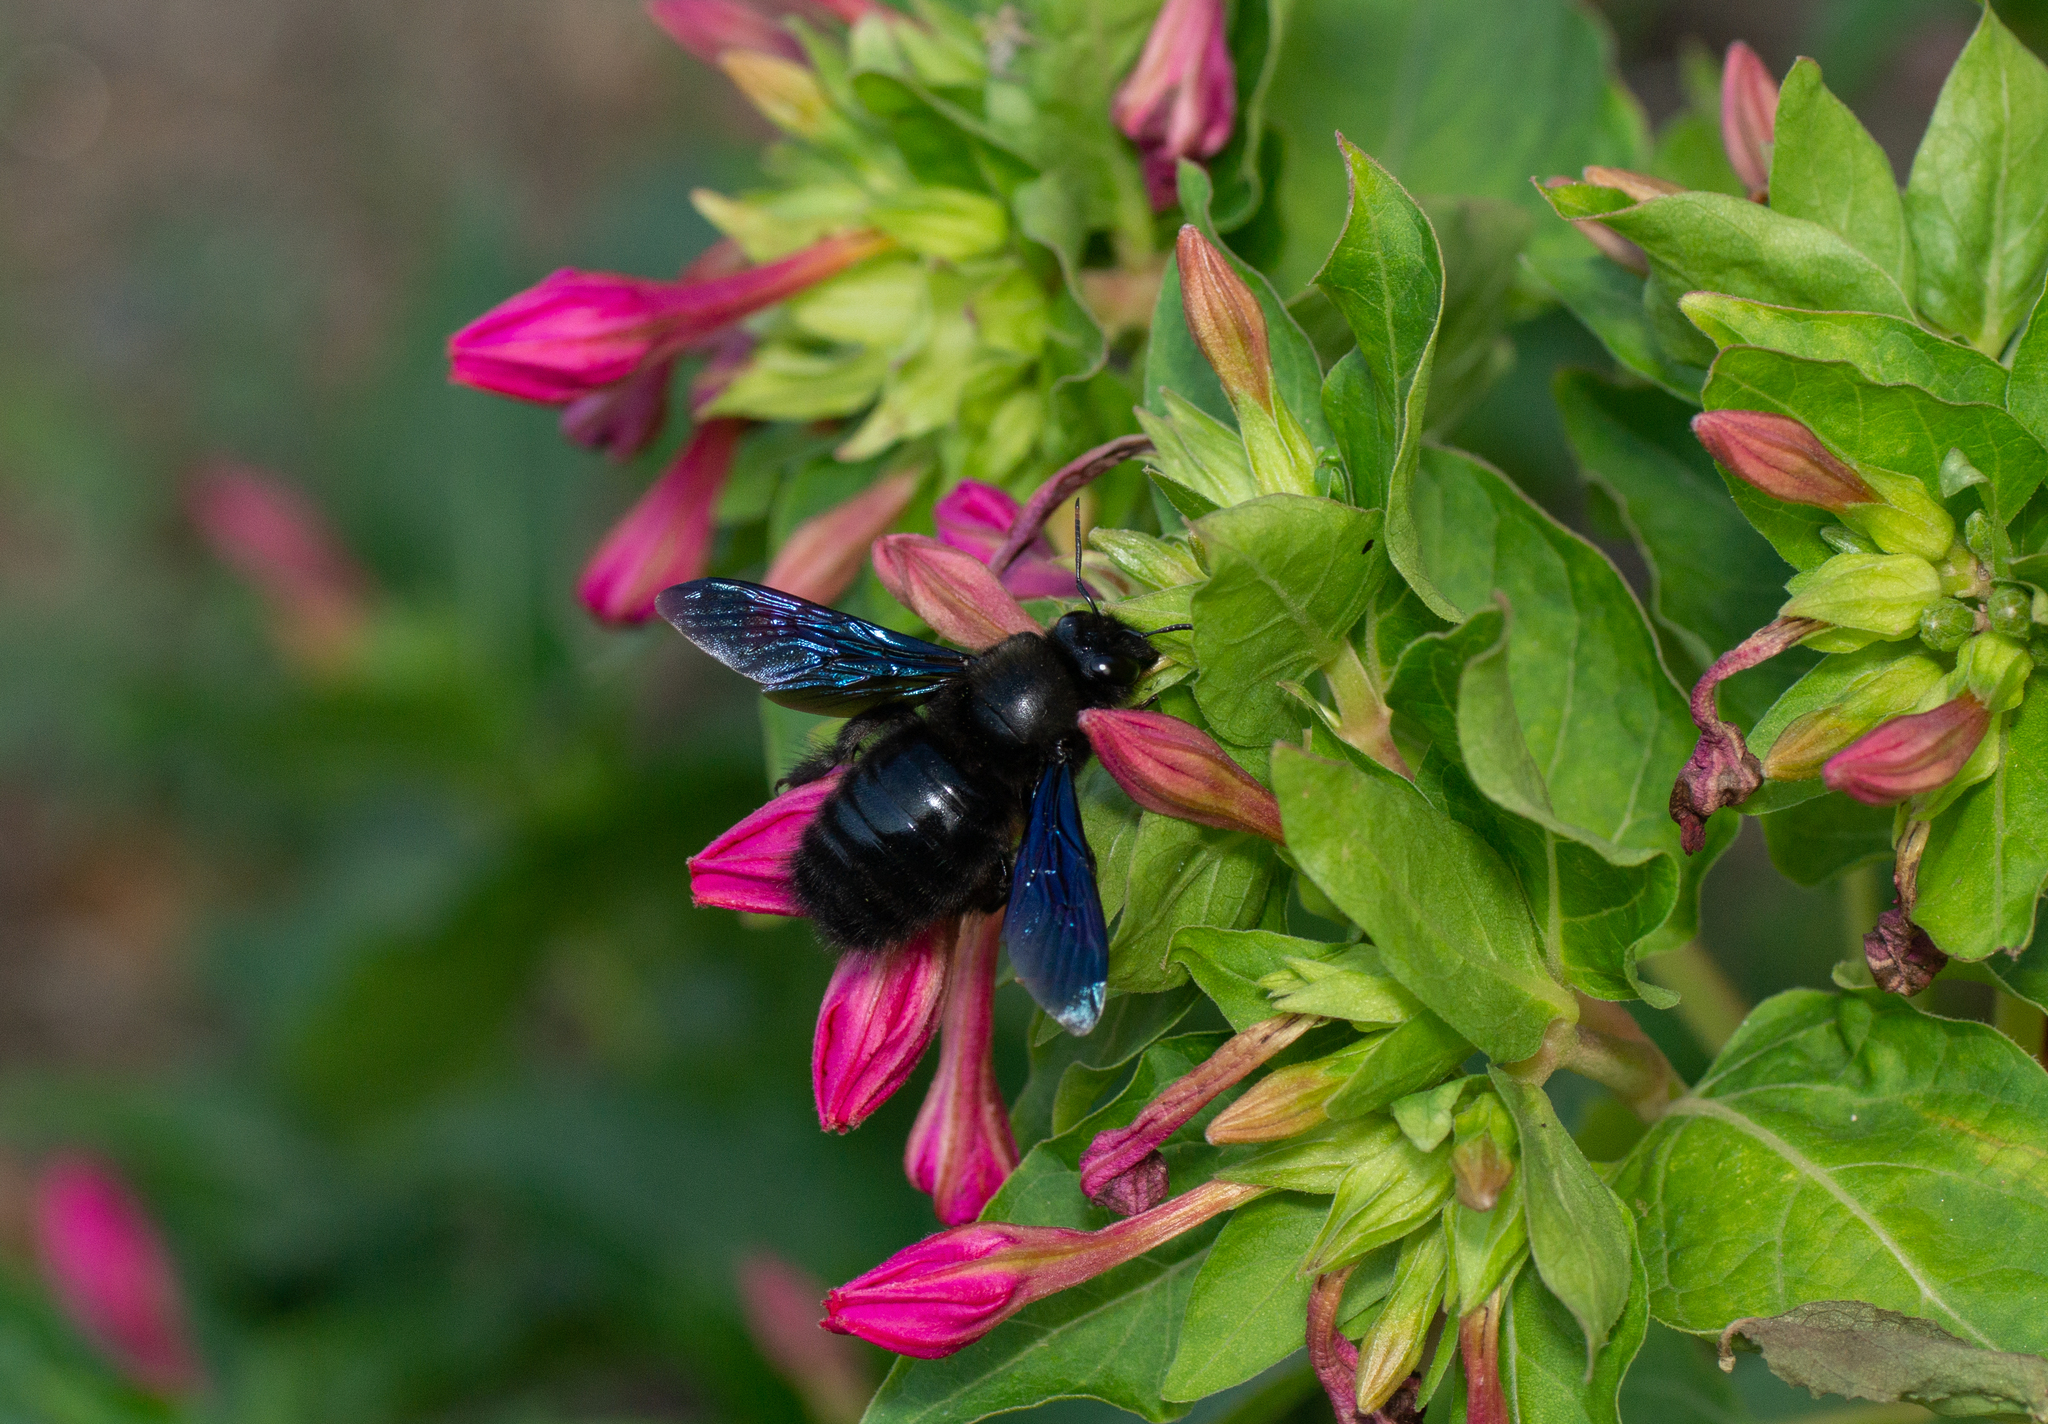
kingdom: Animalia
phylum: Arthropoda
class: Insecta
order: Hymenoptera
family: Apidae
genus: Xylocopa
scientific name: Xylocopa violacea
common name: Violet carpenter bee
